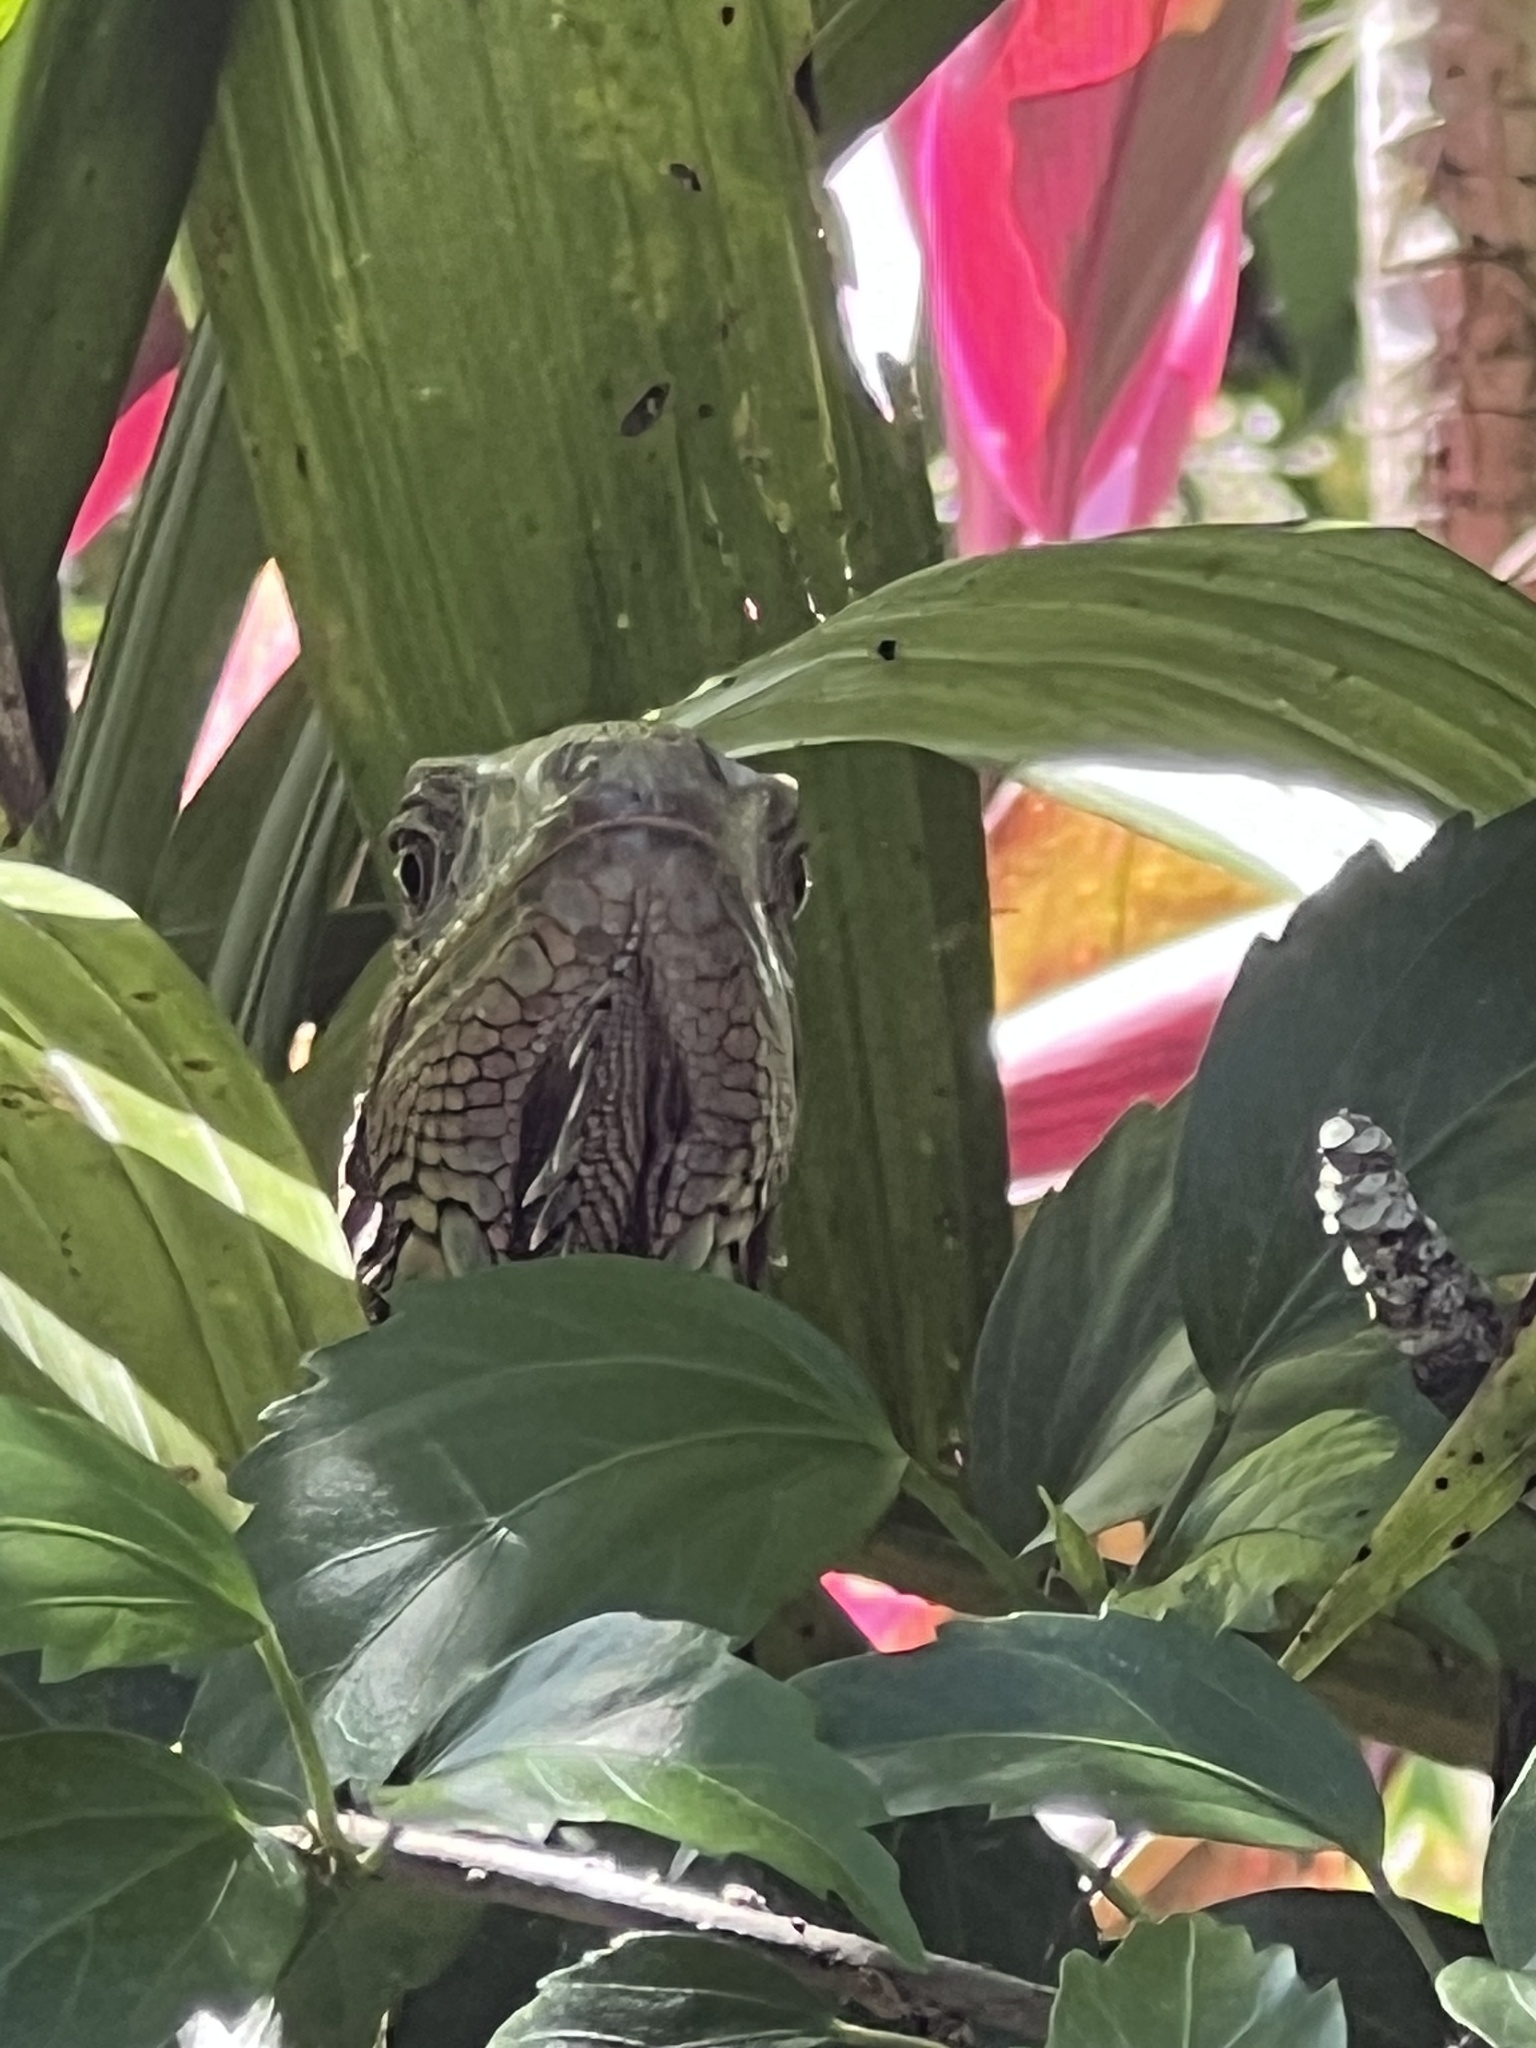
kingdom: Animalia
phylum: Chordata
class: Squamata
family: Iguanidae
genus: Iguana
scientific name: Iguana iguana
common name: Green iguana
